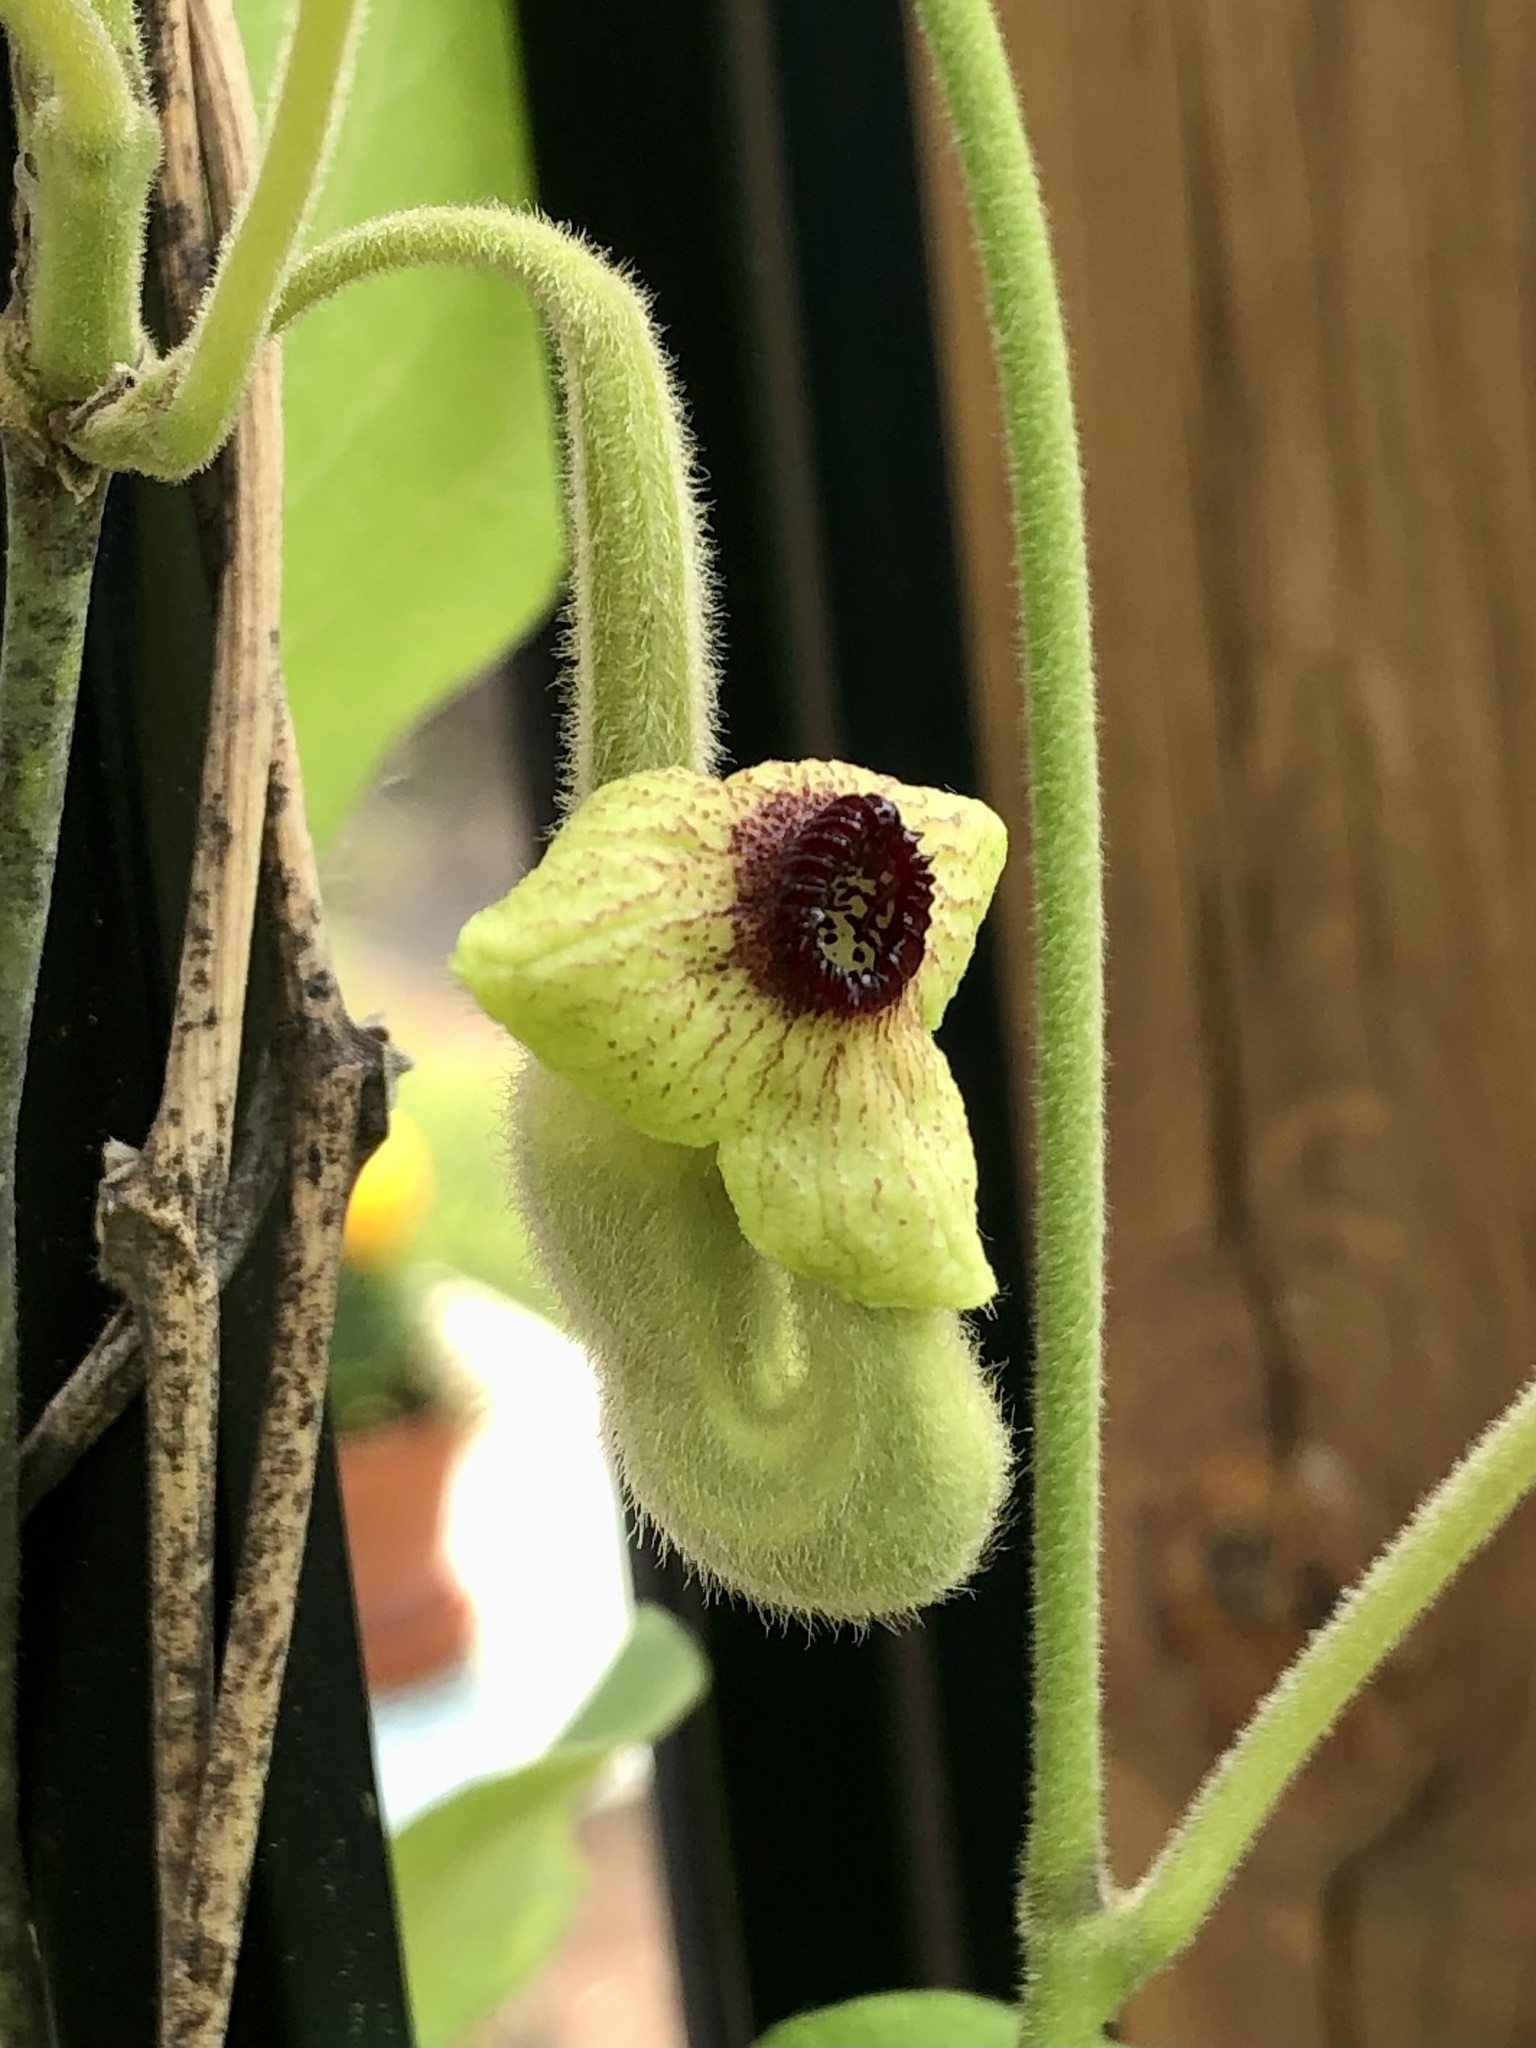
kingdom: Plantae
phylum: Tracheophyta
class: Magnoliopsida
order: Piperales
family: Aristolochiaceae
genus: Isotrema
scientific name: Isotrema tomentosum
